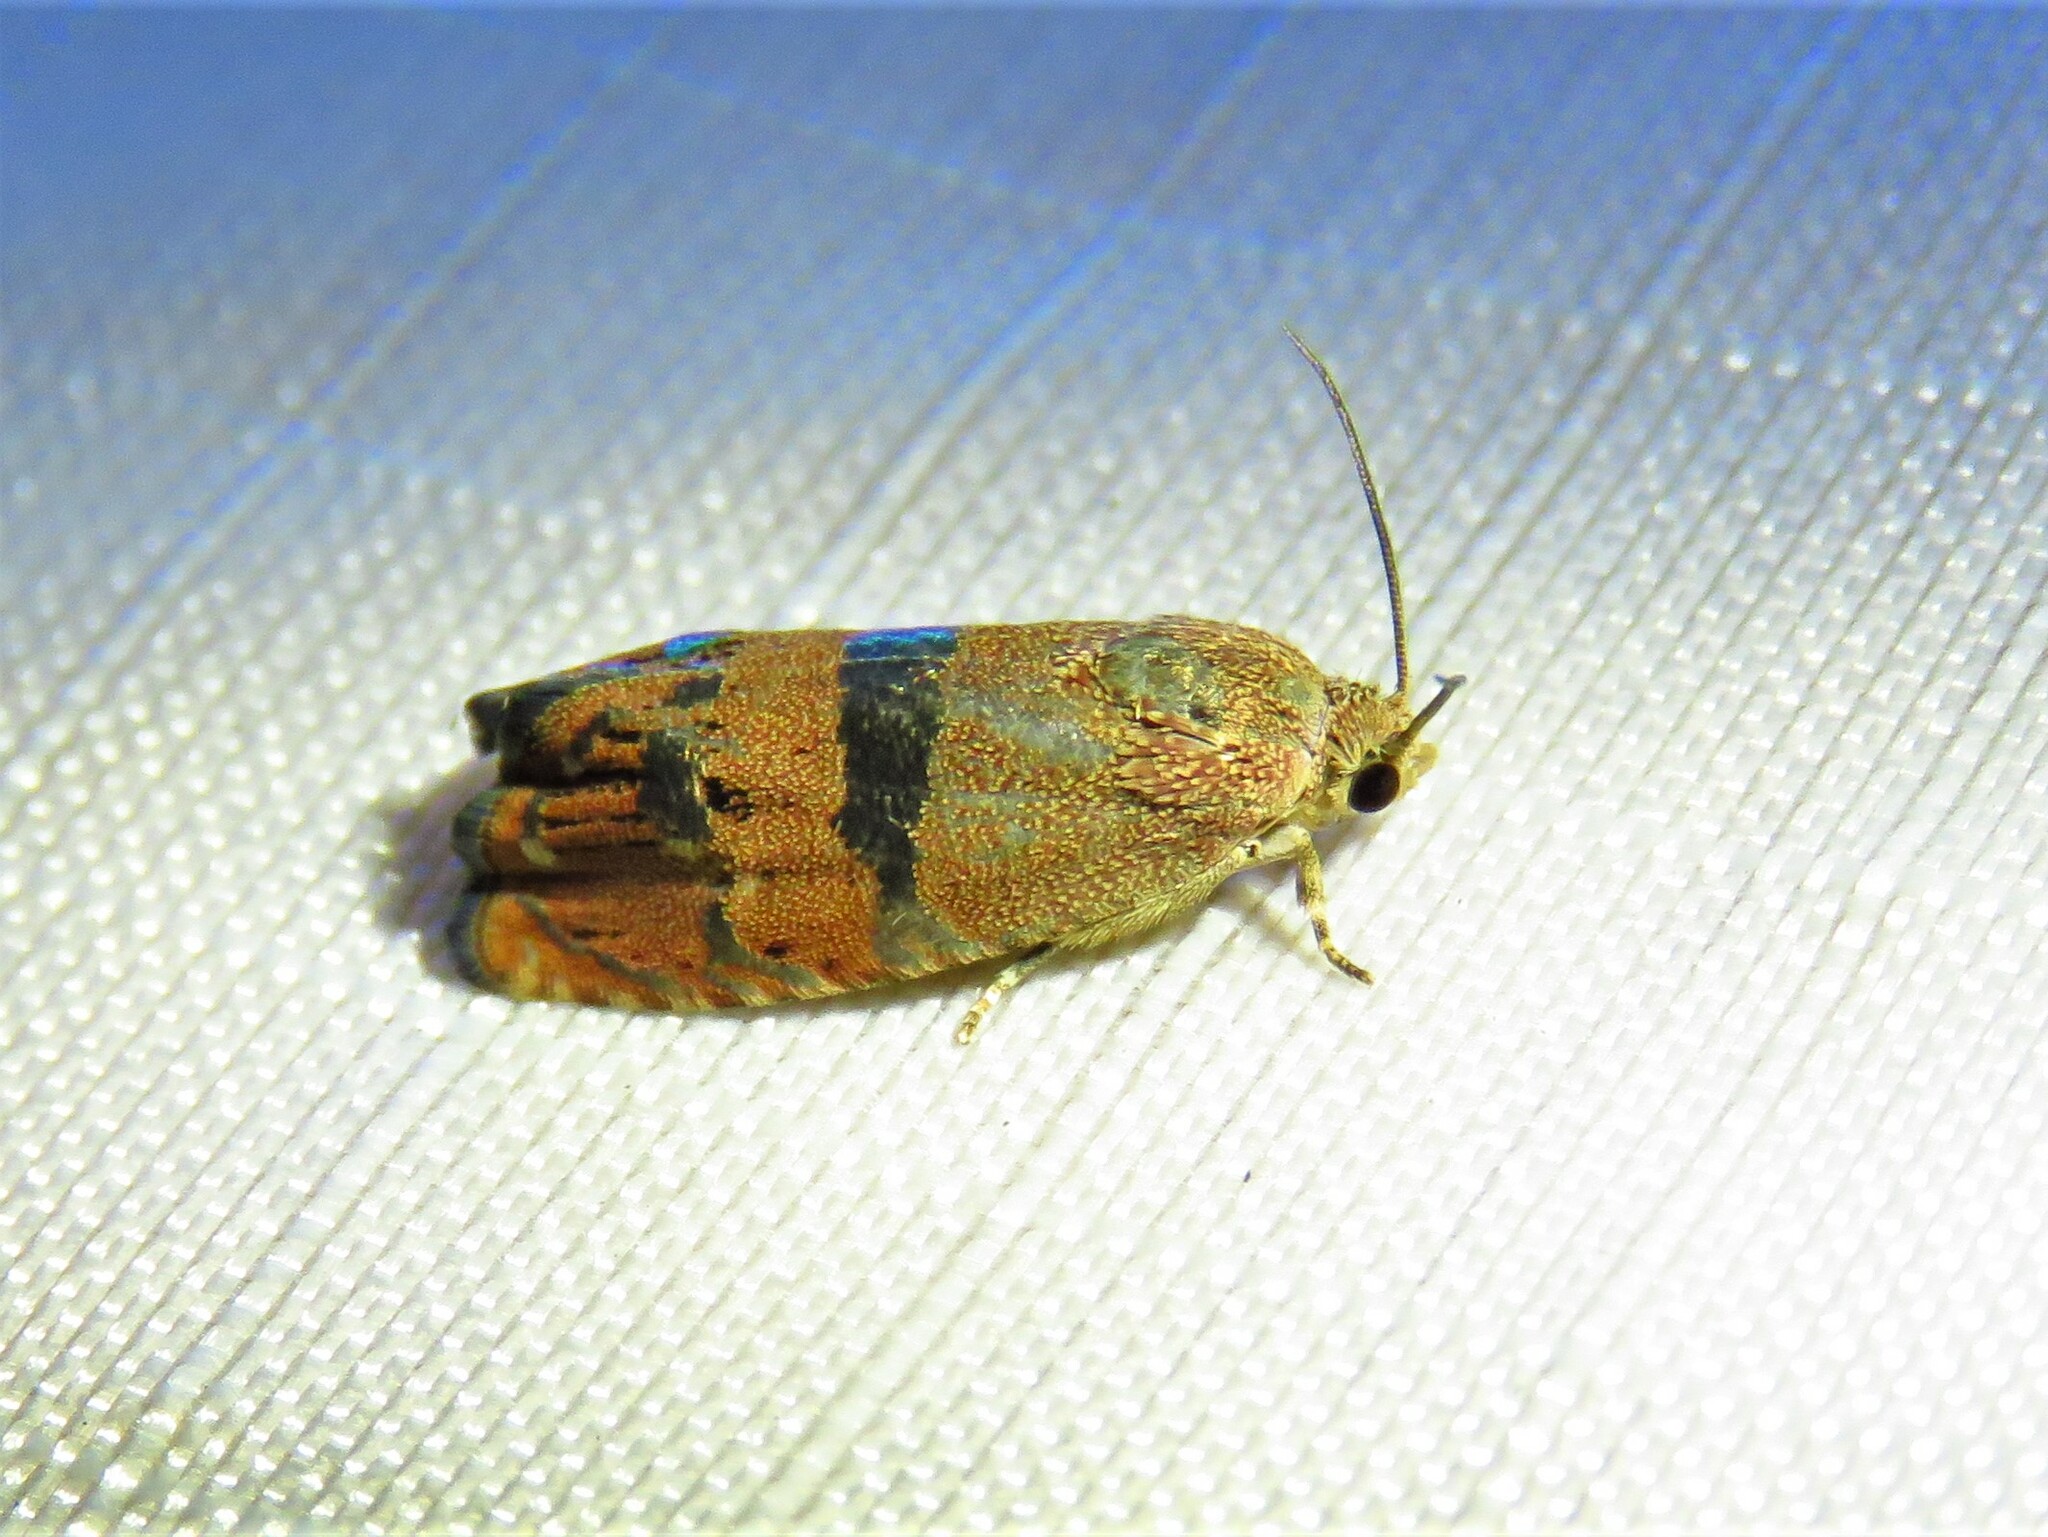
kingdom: Animalia
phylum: Arthropoda
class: Insecta
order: Lepidoptera
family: Tortricidae
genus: Cydia
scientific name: Cydia latiferreana
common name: Filbertworm moth
